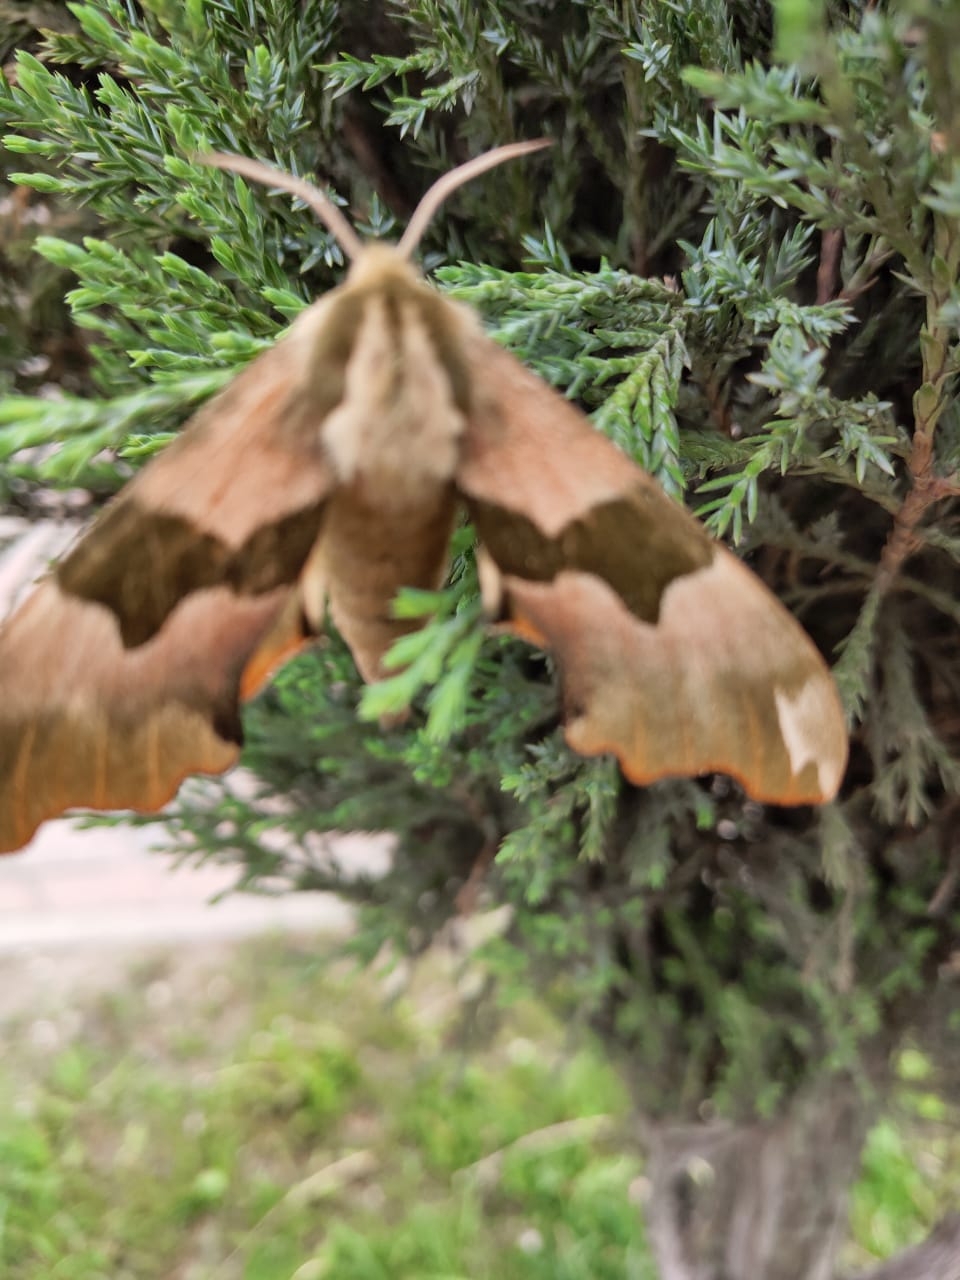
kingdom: Animalia
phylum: Arthropoda
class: Insecta
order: Lepidoptera
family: Sphingidae
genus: Mimas
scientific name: Mimas tiliae
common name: Lime hawk-moth
